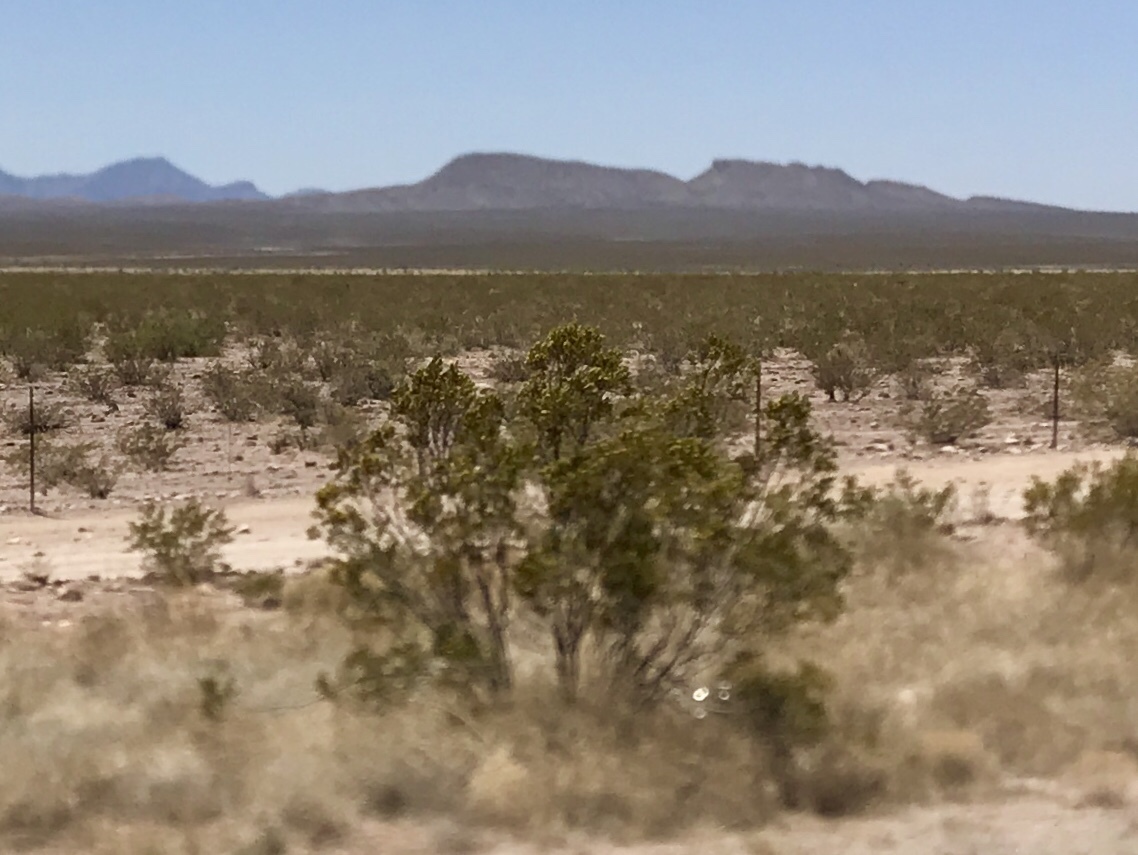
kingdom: Plantae
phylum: Tracheophyta
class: Magnoliopsida
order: Zygophyllales
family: Zygophyllaceae
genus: Larrea
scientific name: Larrea tridentata
